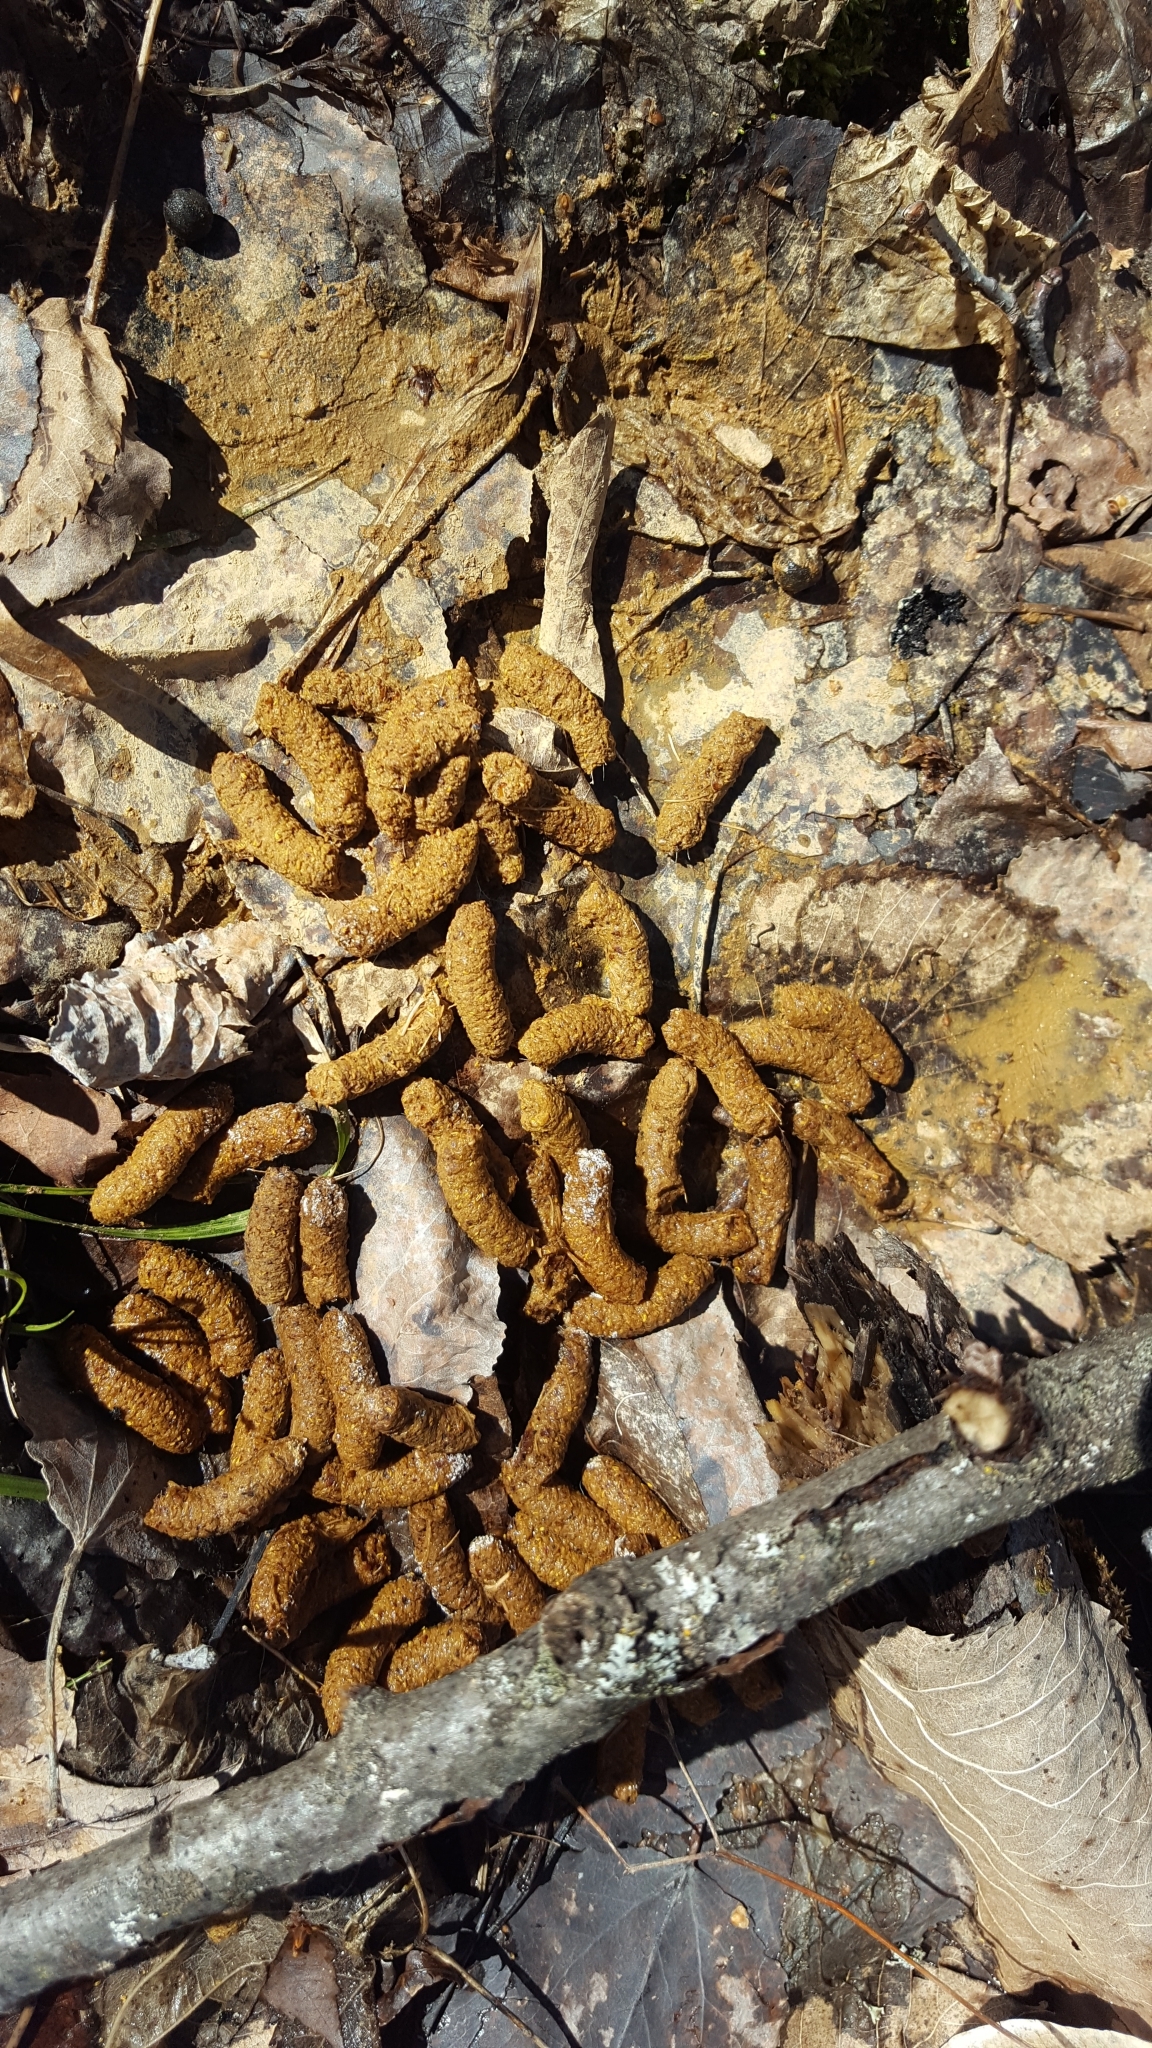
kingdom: Animalia
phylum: Chordata
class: Aves
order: Galliformes
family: Phasianidae
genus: Bonasa
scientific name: Bonasa umbellus
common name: Ruffed grouse
